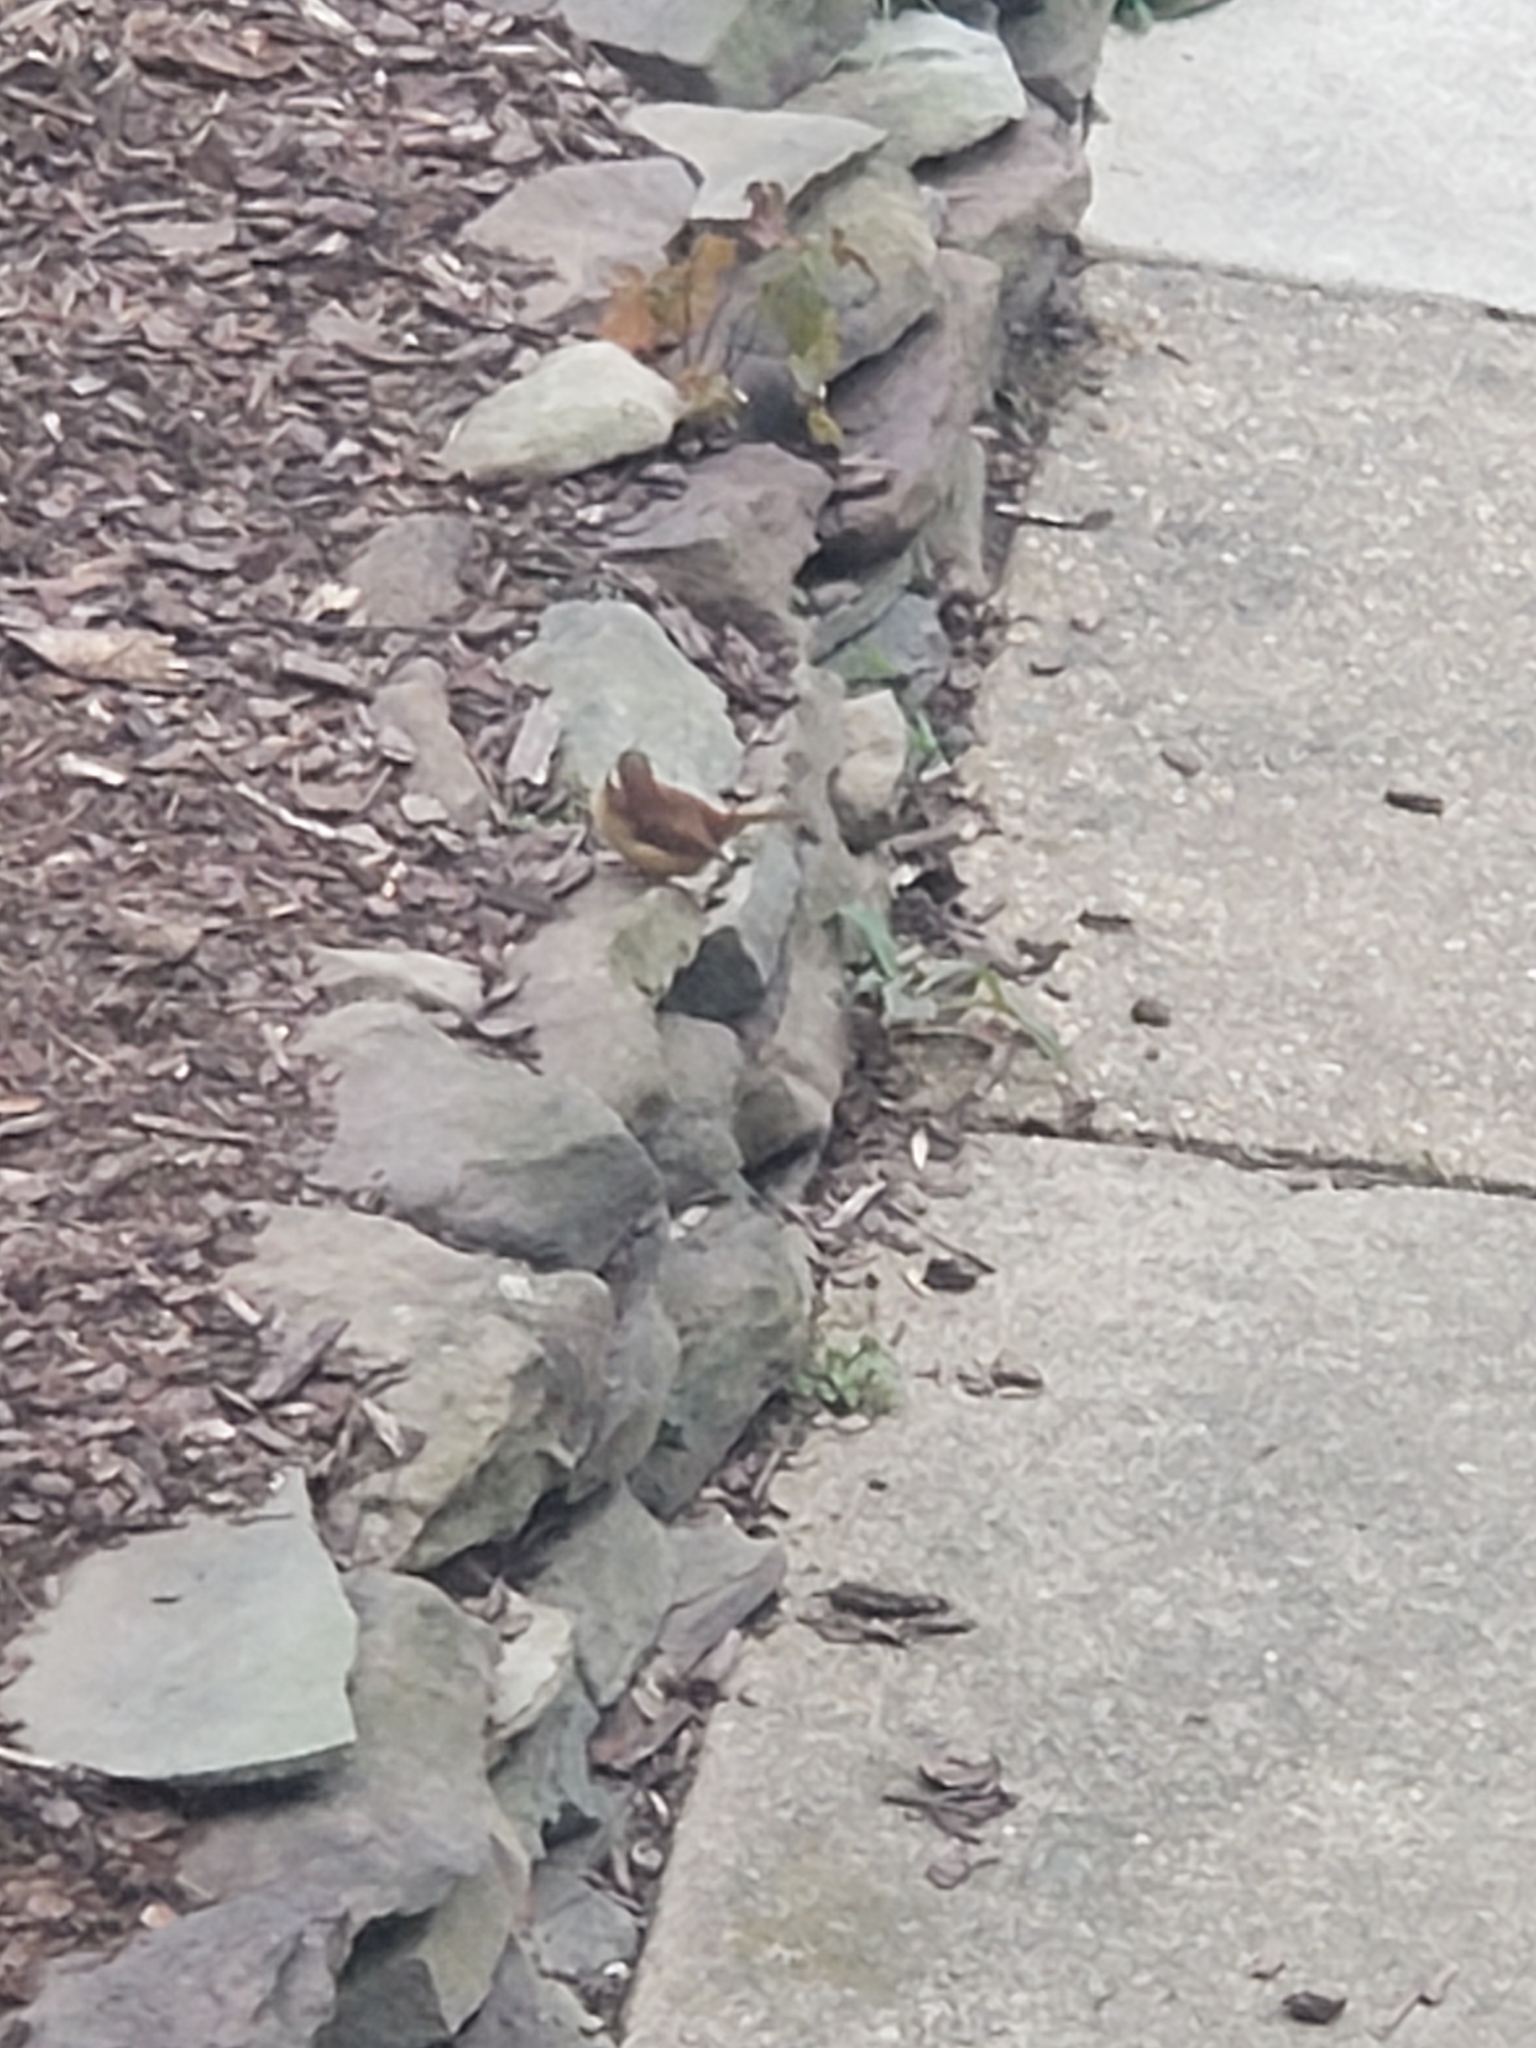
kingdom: Animalia
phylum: Chordata
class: Aves
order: Passeriformes
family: Troglodytidae
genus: Thryothorus
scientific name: Thryothorus ludovicianus
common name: Carolina wren
